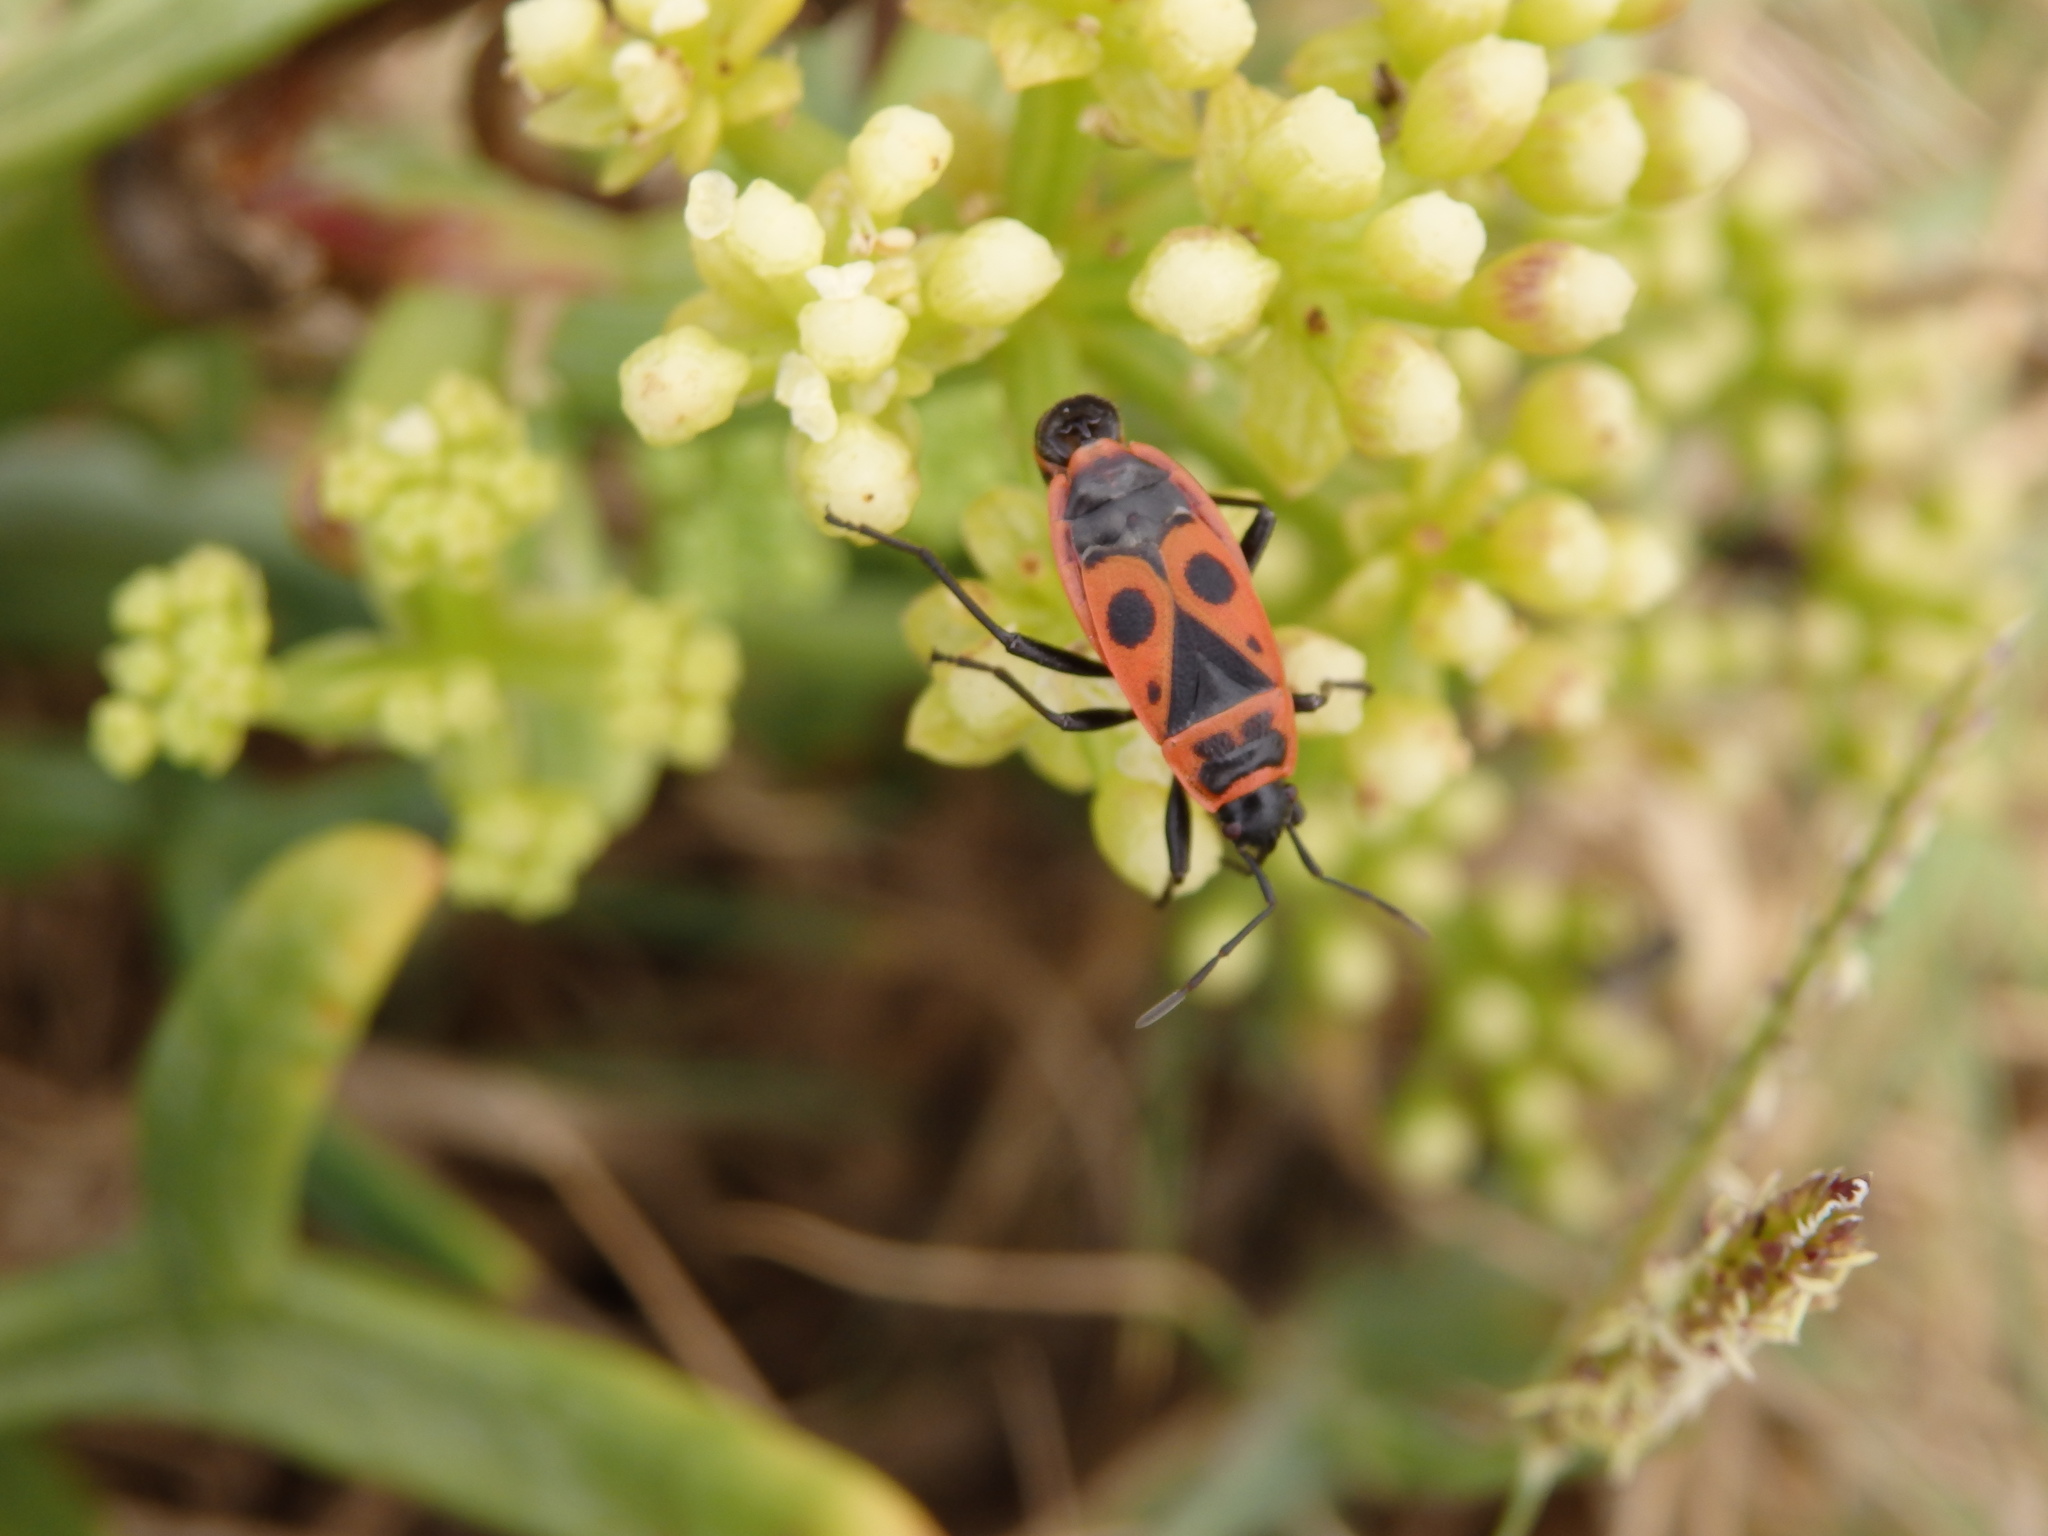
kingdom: Animalia
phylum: Arthropoda
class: Insecta
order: Hemiptera
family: Pyrrhocoridae
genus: Pyrrhocoris
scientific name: Pyrrhocoris apterus
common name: Firebug
